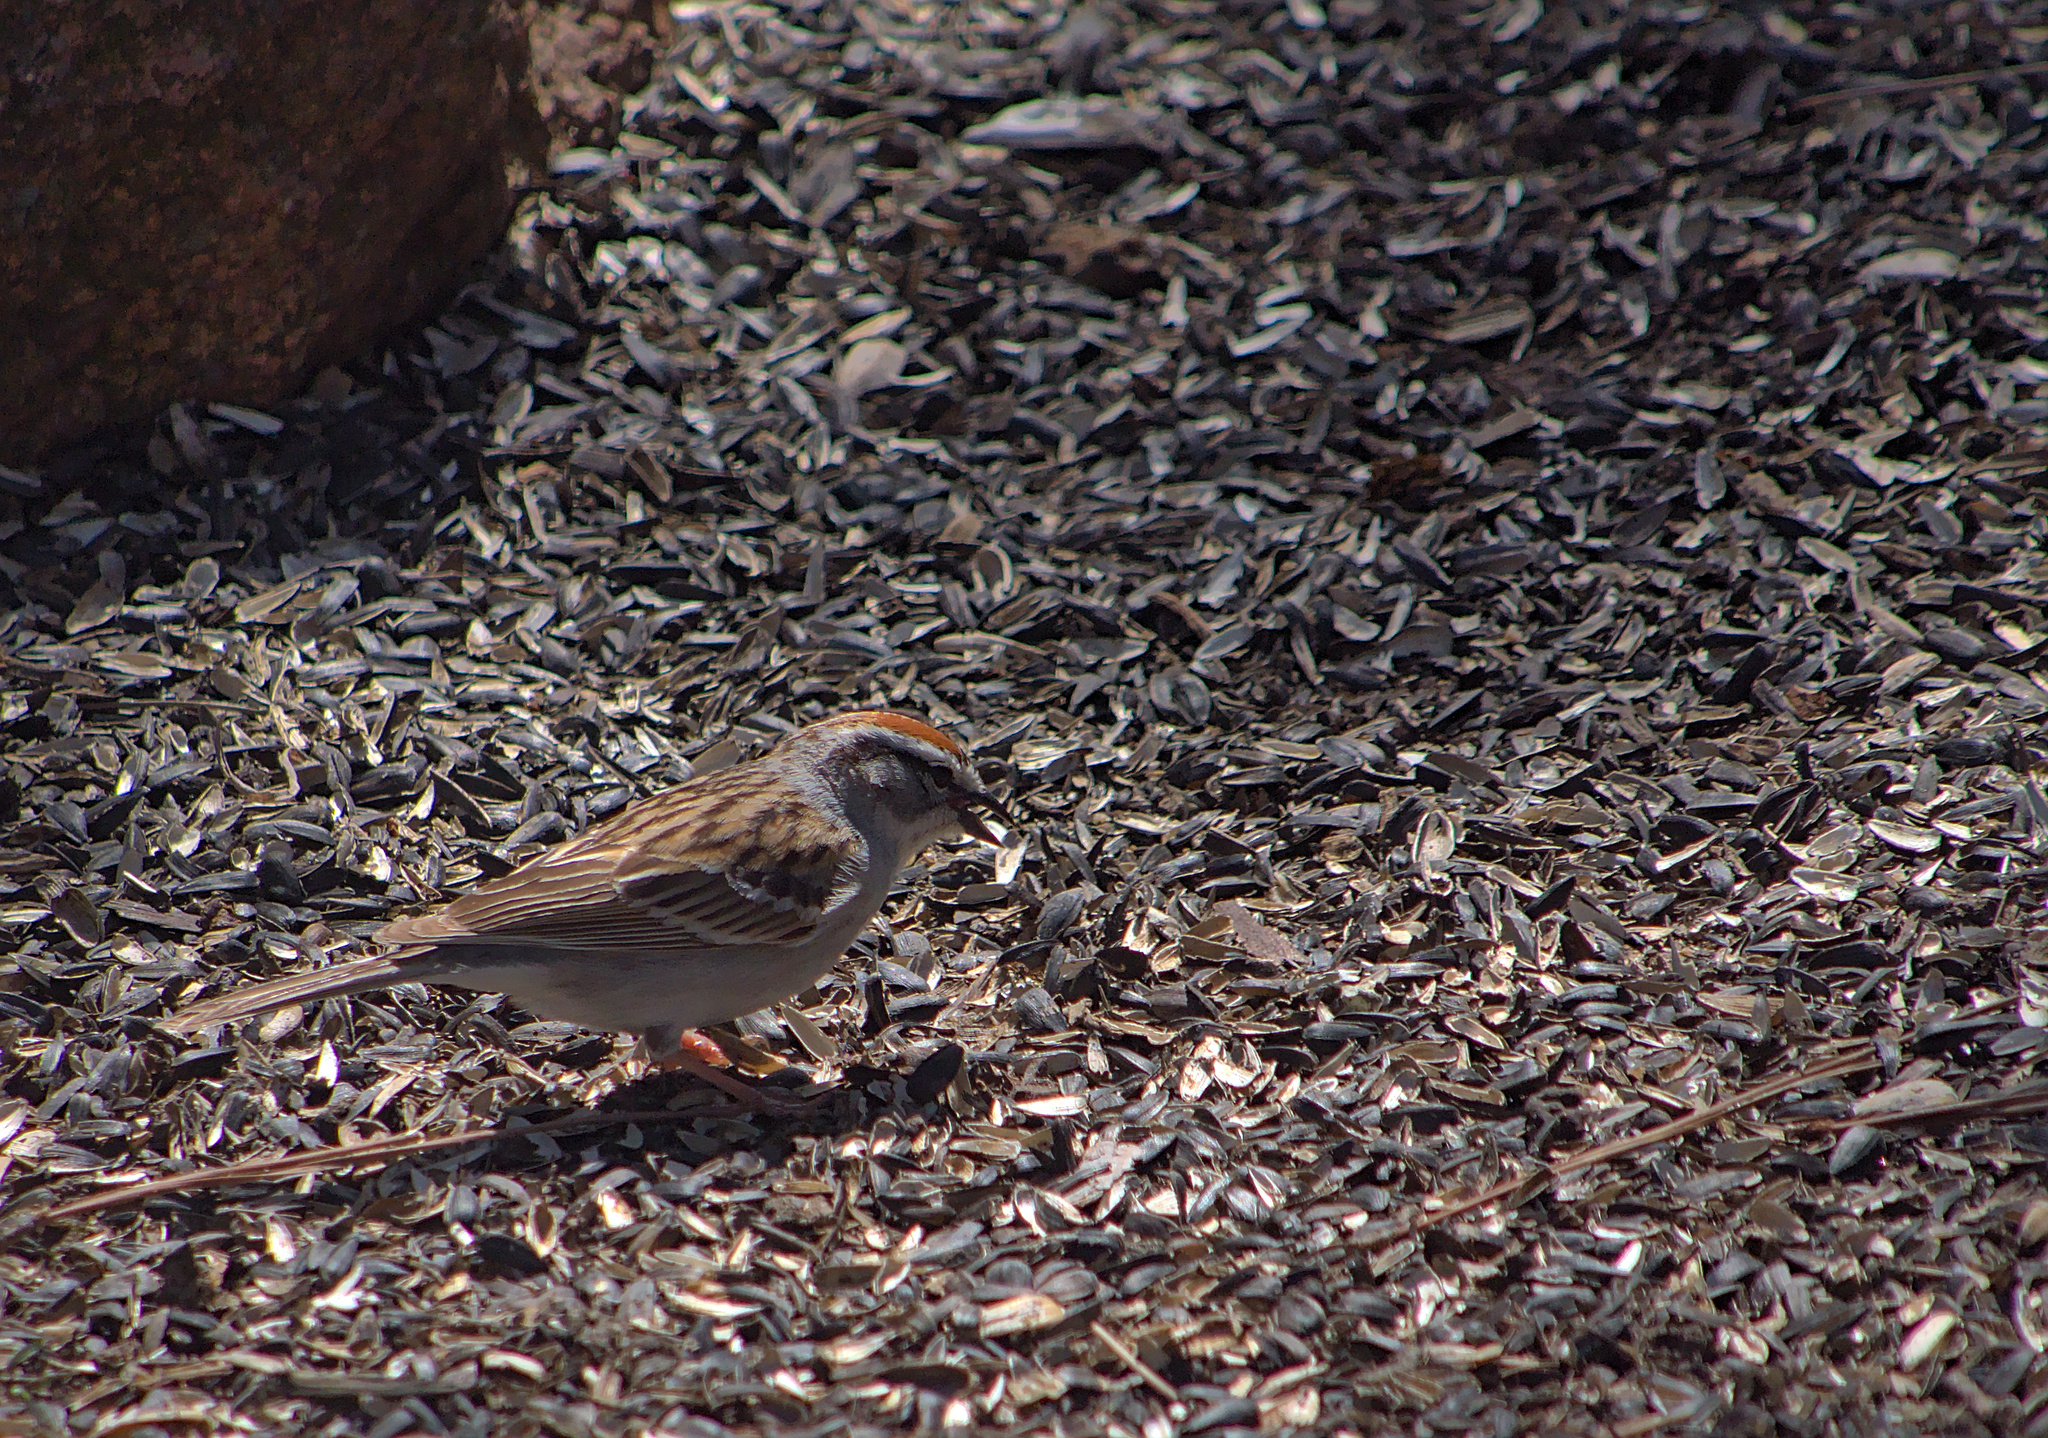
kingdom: Animalia
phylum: Chordata
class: Aves
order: Passeriformes
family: Passerellidae
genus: Spizella
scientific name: Spizella passerina
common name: Chipping sparrow
